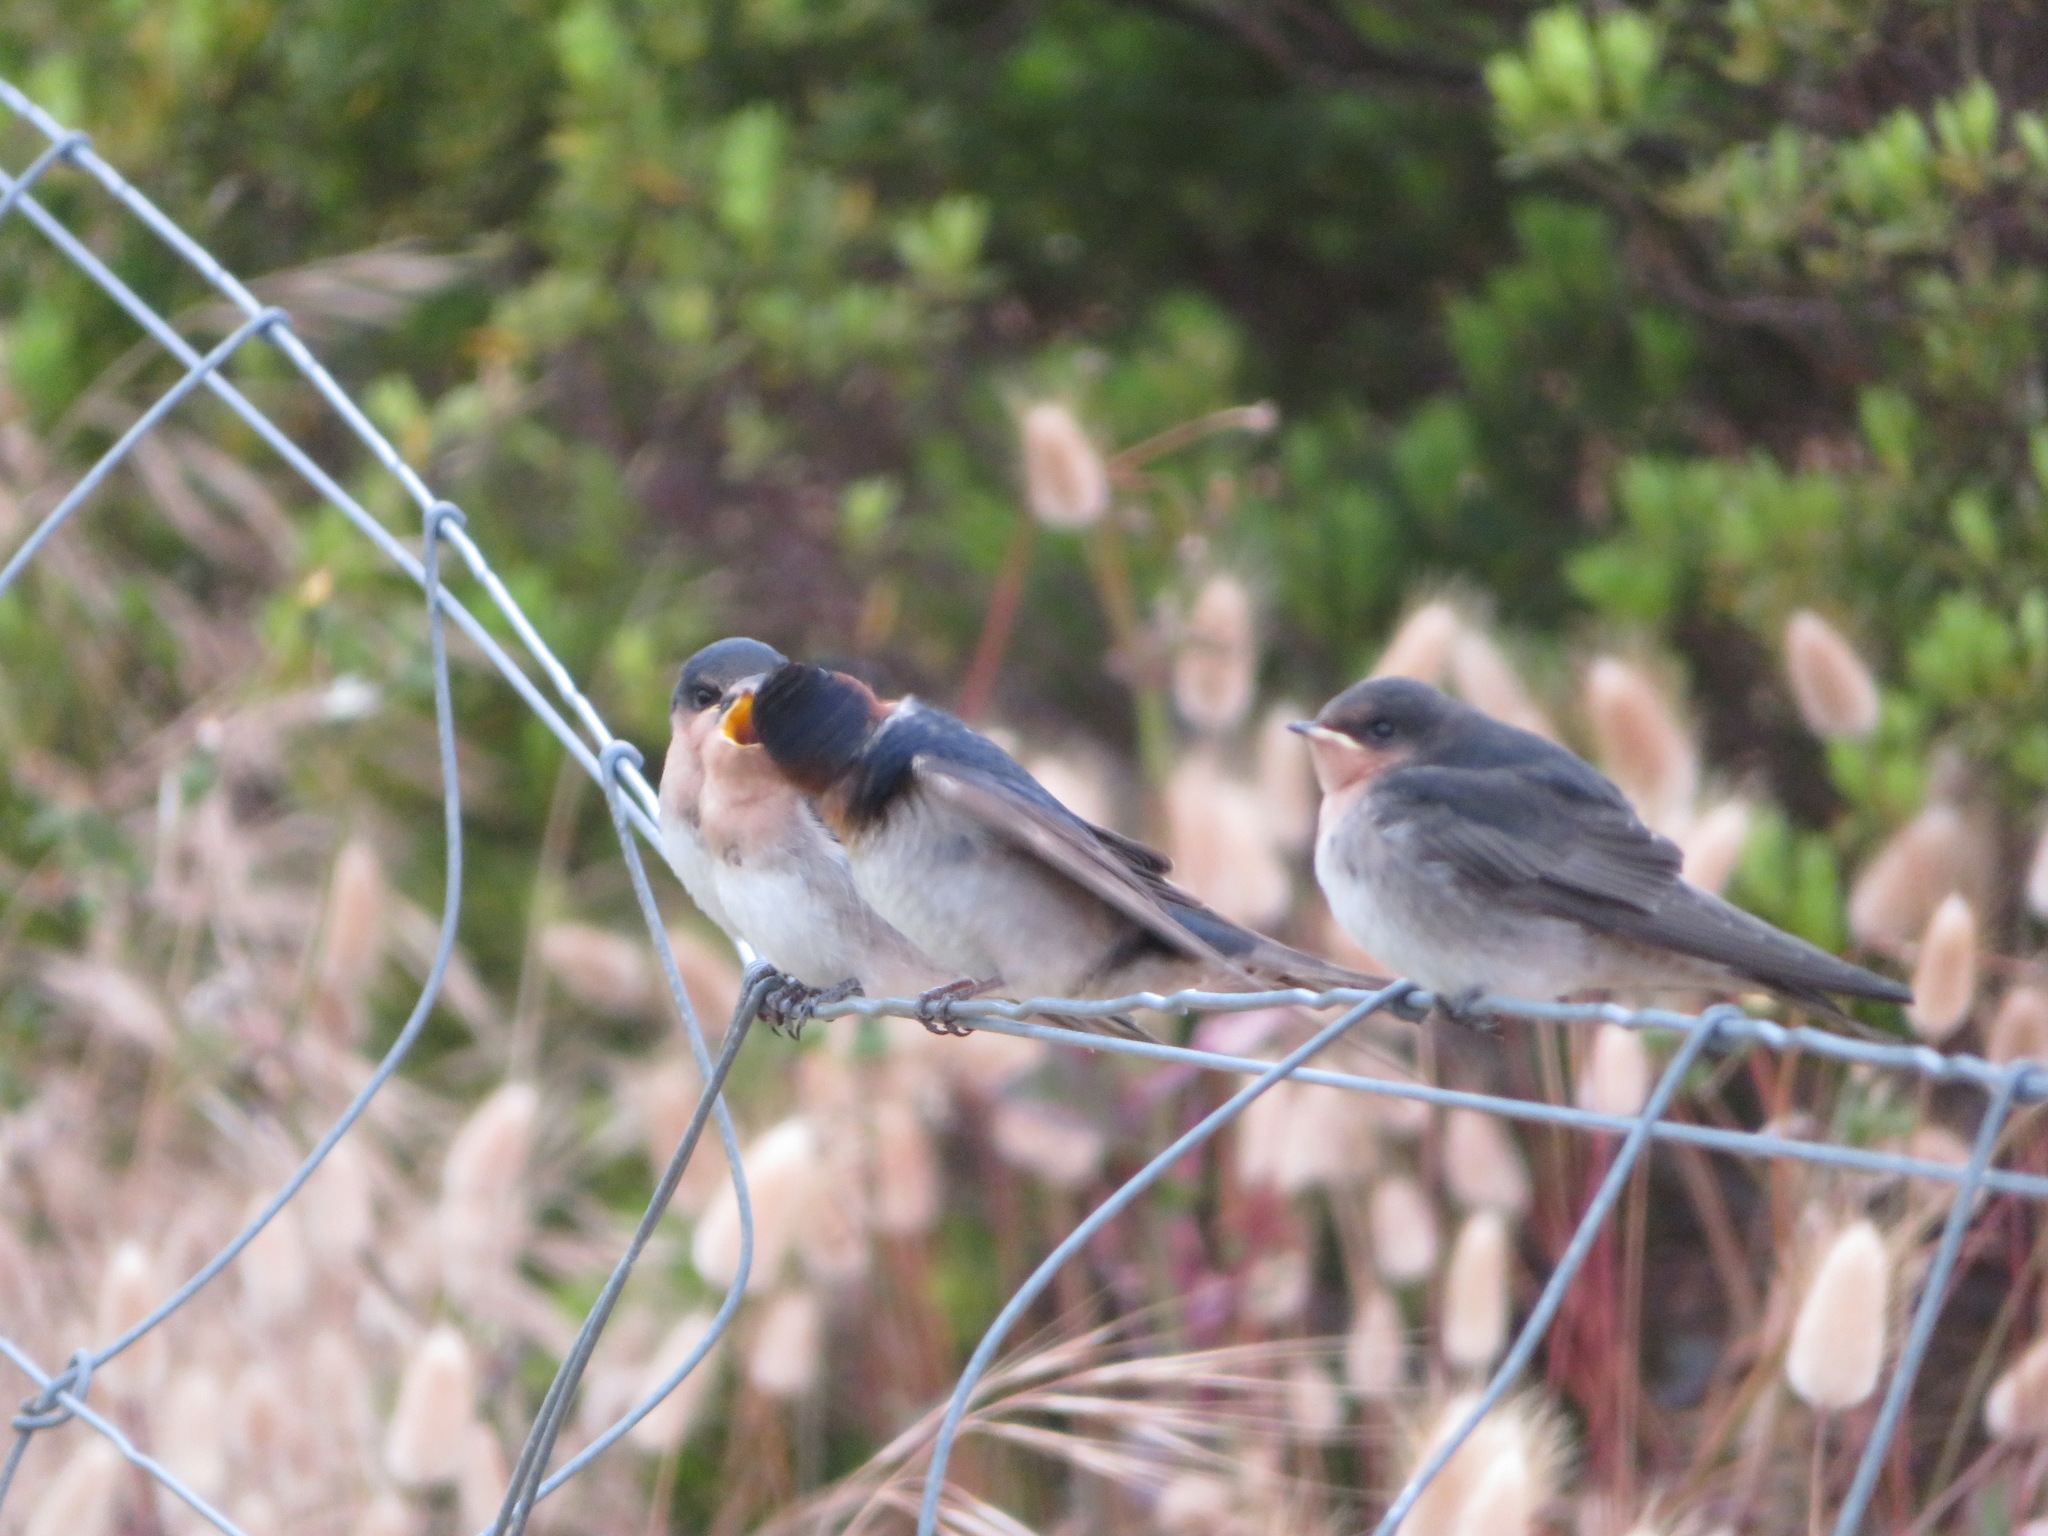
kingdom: Animalia
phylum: Chordata
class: Aves
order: Passeriformes
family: Hirundinidae
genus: Hirundo
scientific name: Hirundo neoxena
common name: Welcome swallow
